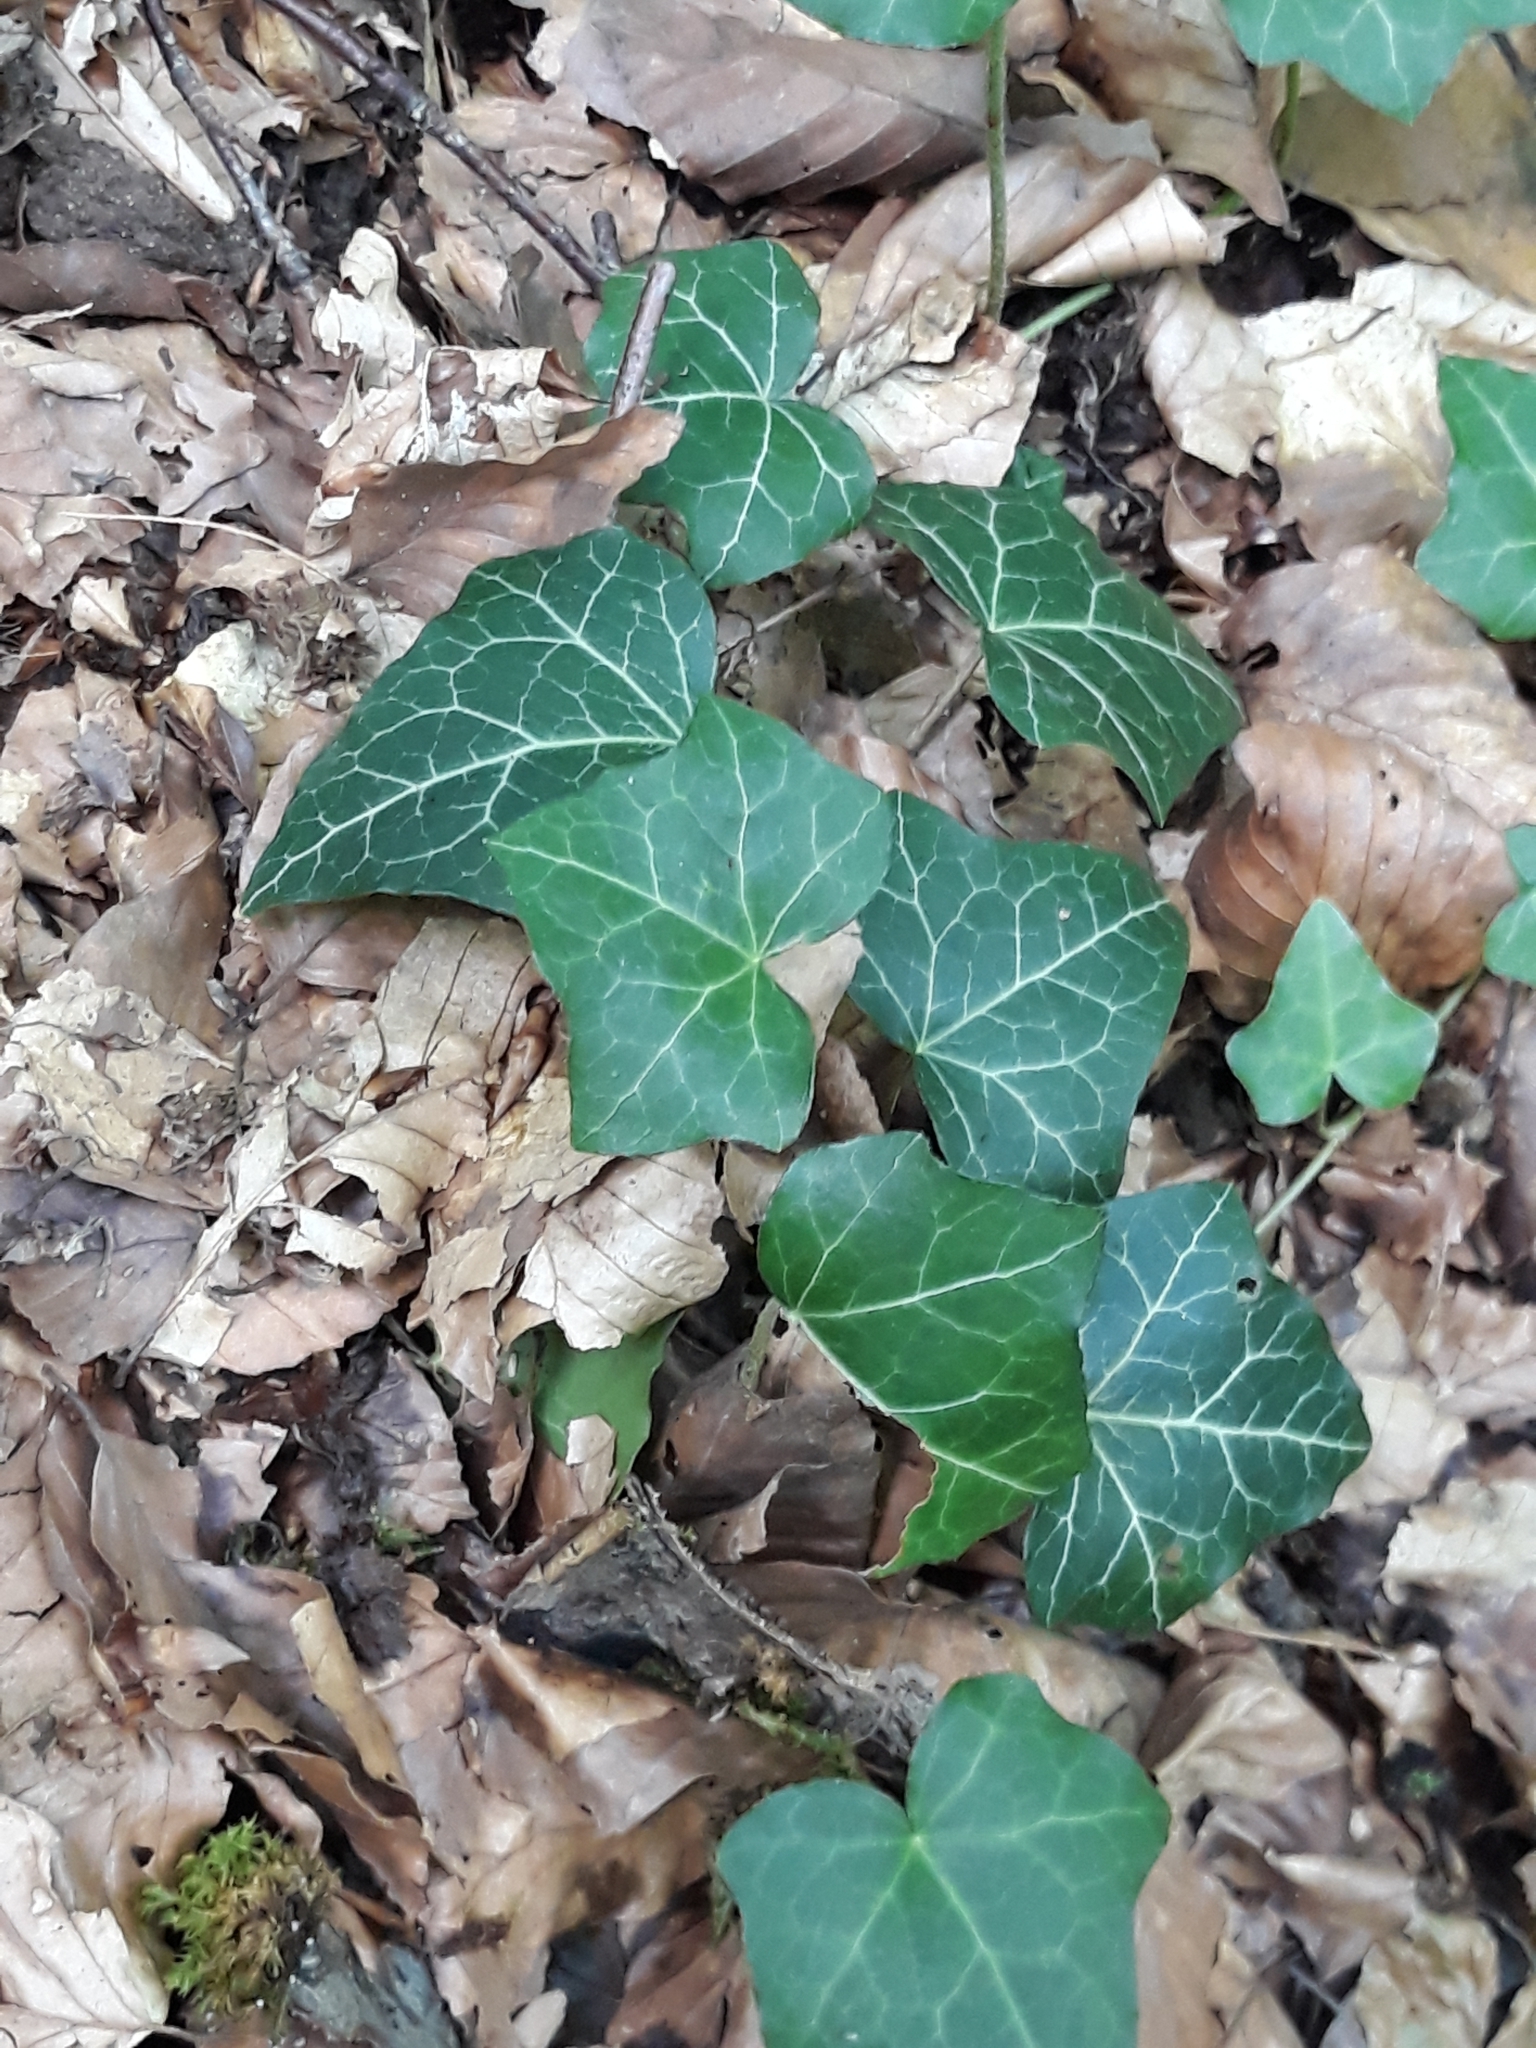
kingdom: Plantae
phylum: Tracheophyta
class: Magnoliopsida
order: Apiales
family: Araliaceae
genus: Hedera
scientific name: Hedera helix
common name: Ivy
